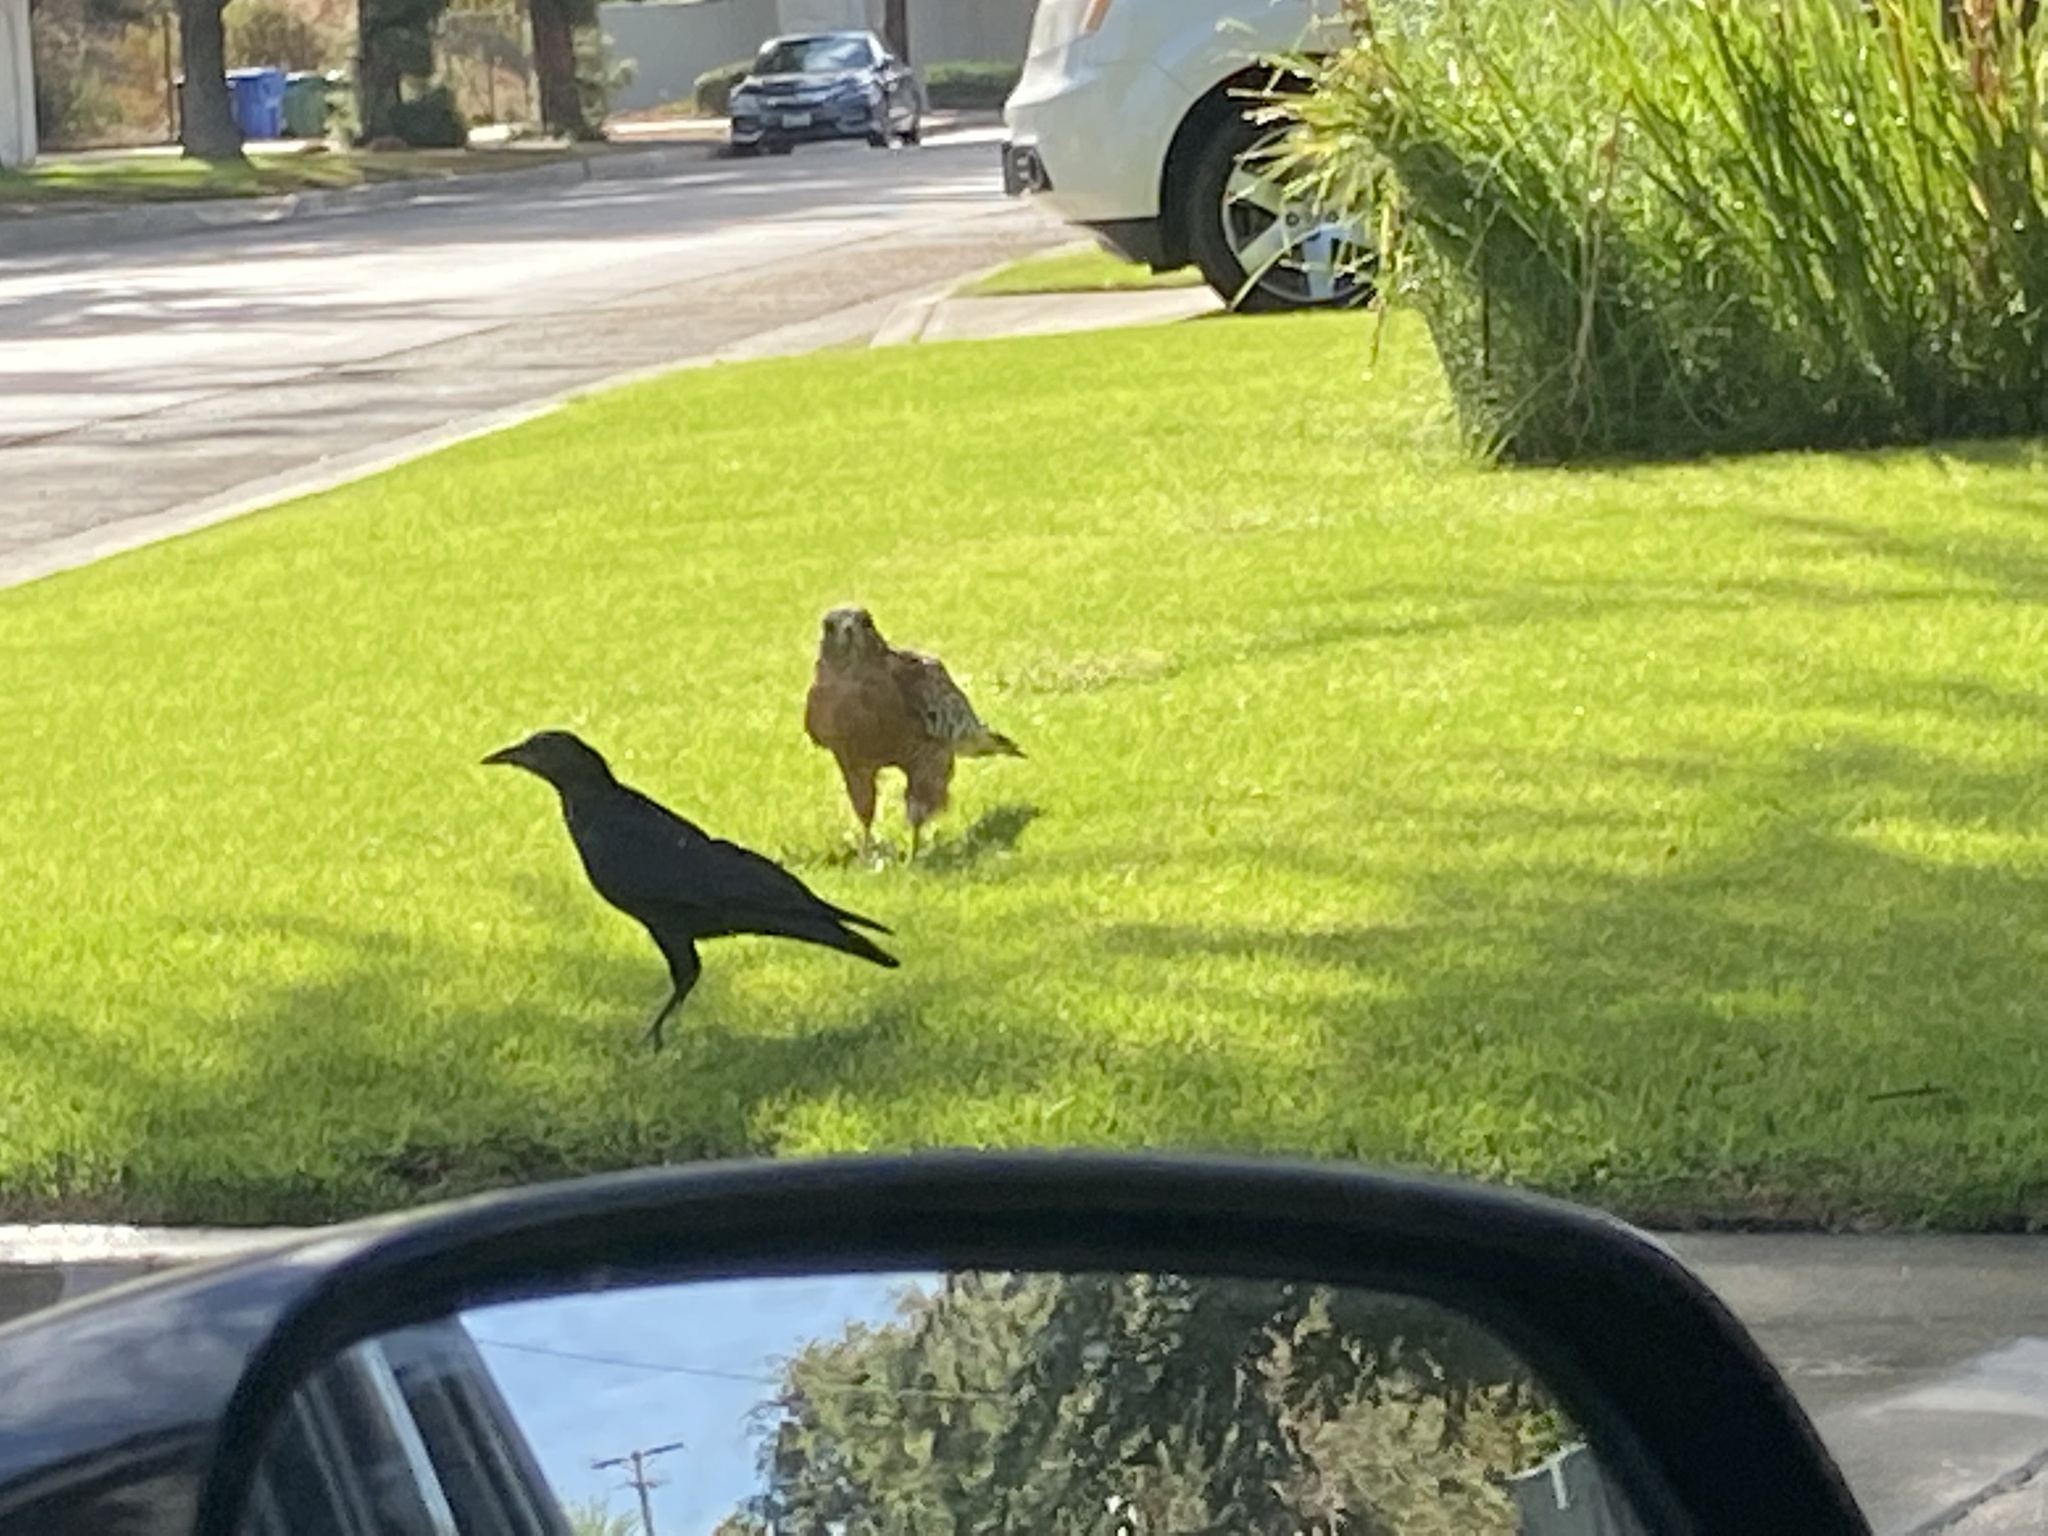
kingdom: Animalia
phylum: Chordata
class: Aves
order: Accipitriformes
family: Accipitridae
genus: Buteo
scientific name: Buteo lineatus
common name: Red-shouldered hawk
